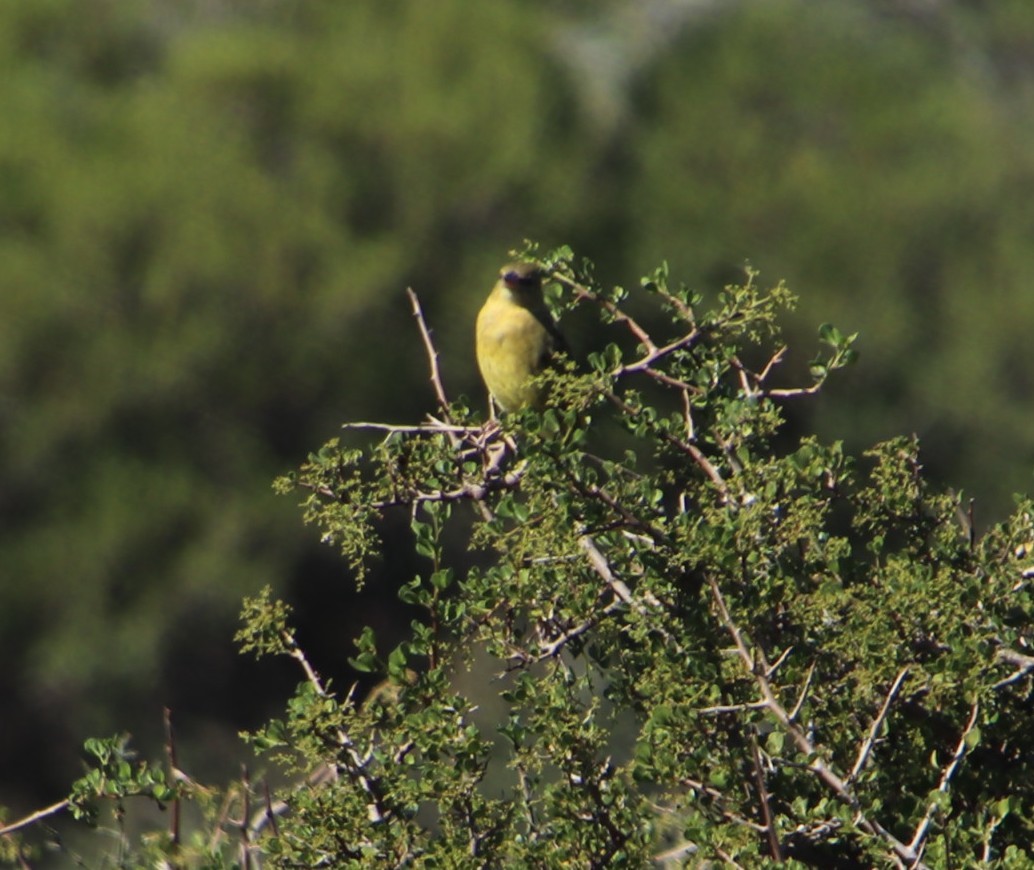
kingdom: Animalia
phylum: Chordata
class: Aves
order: Passeriformes
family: Ploceidae
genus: Ploceus
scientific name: Ploceus capensis
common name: Cape weaver
